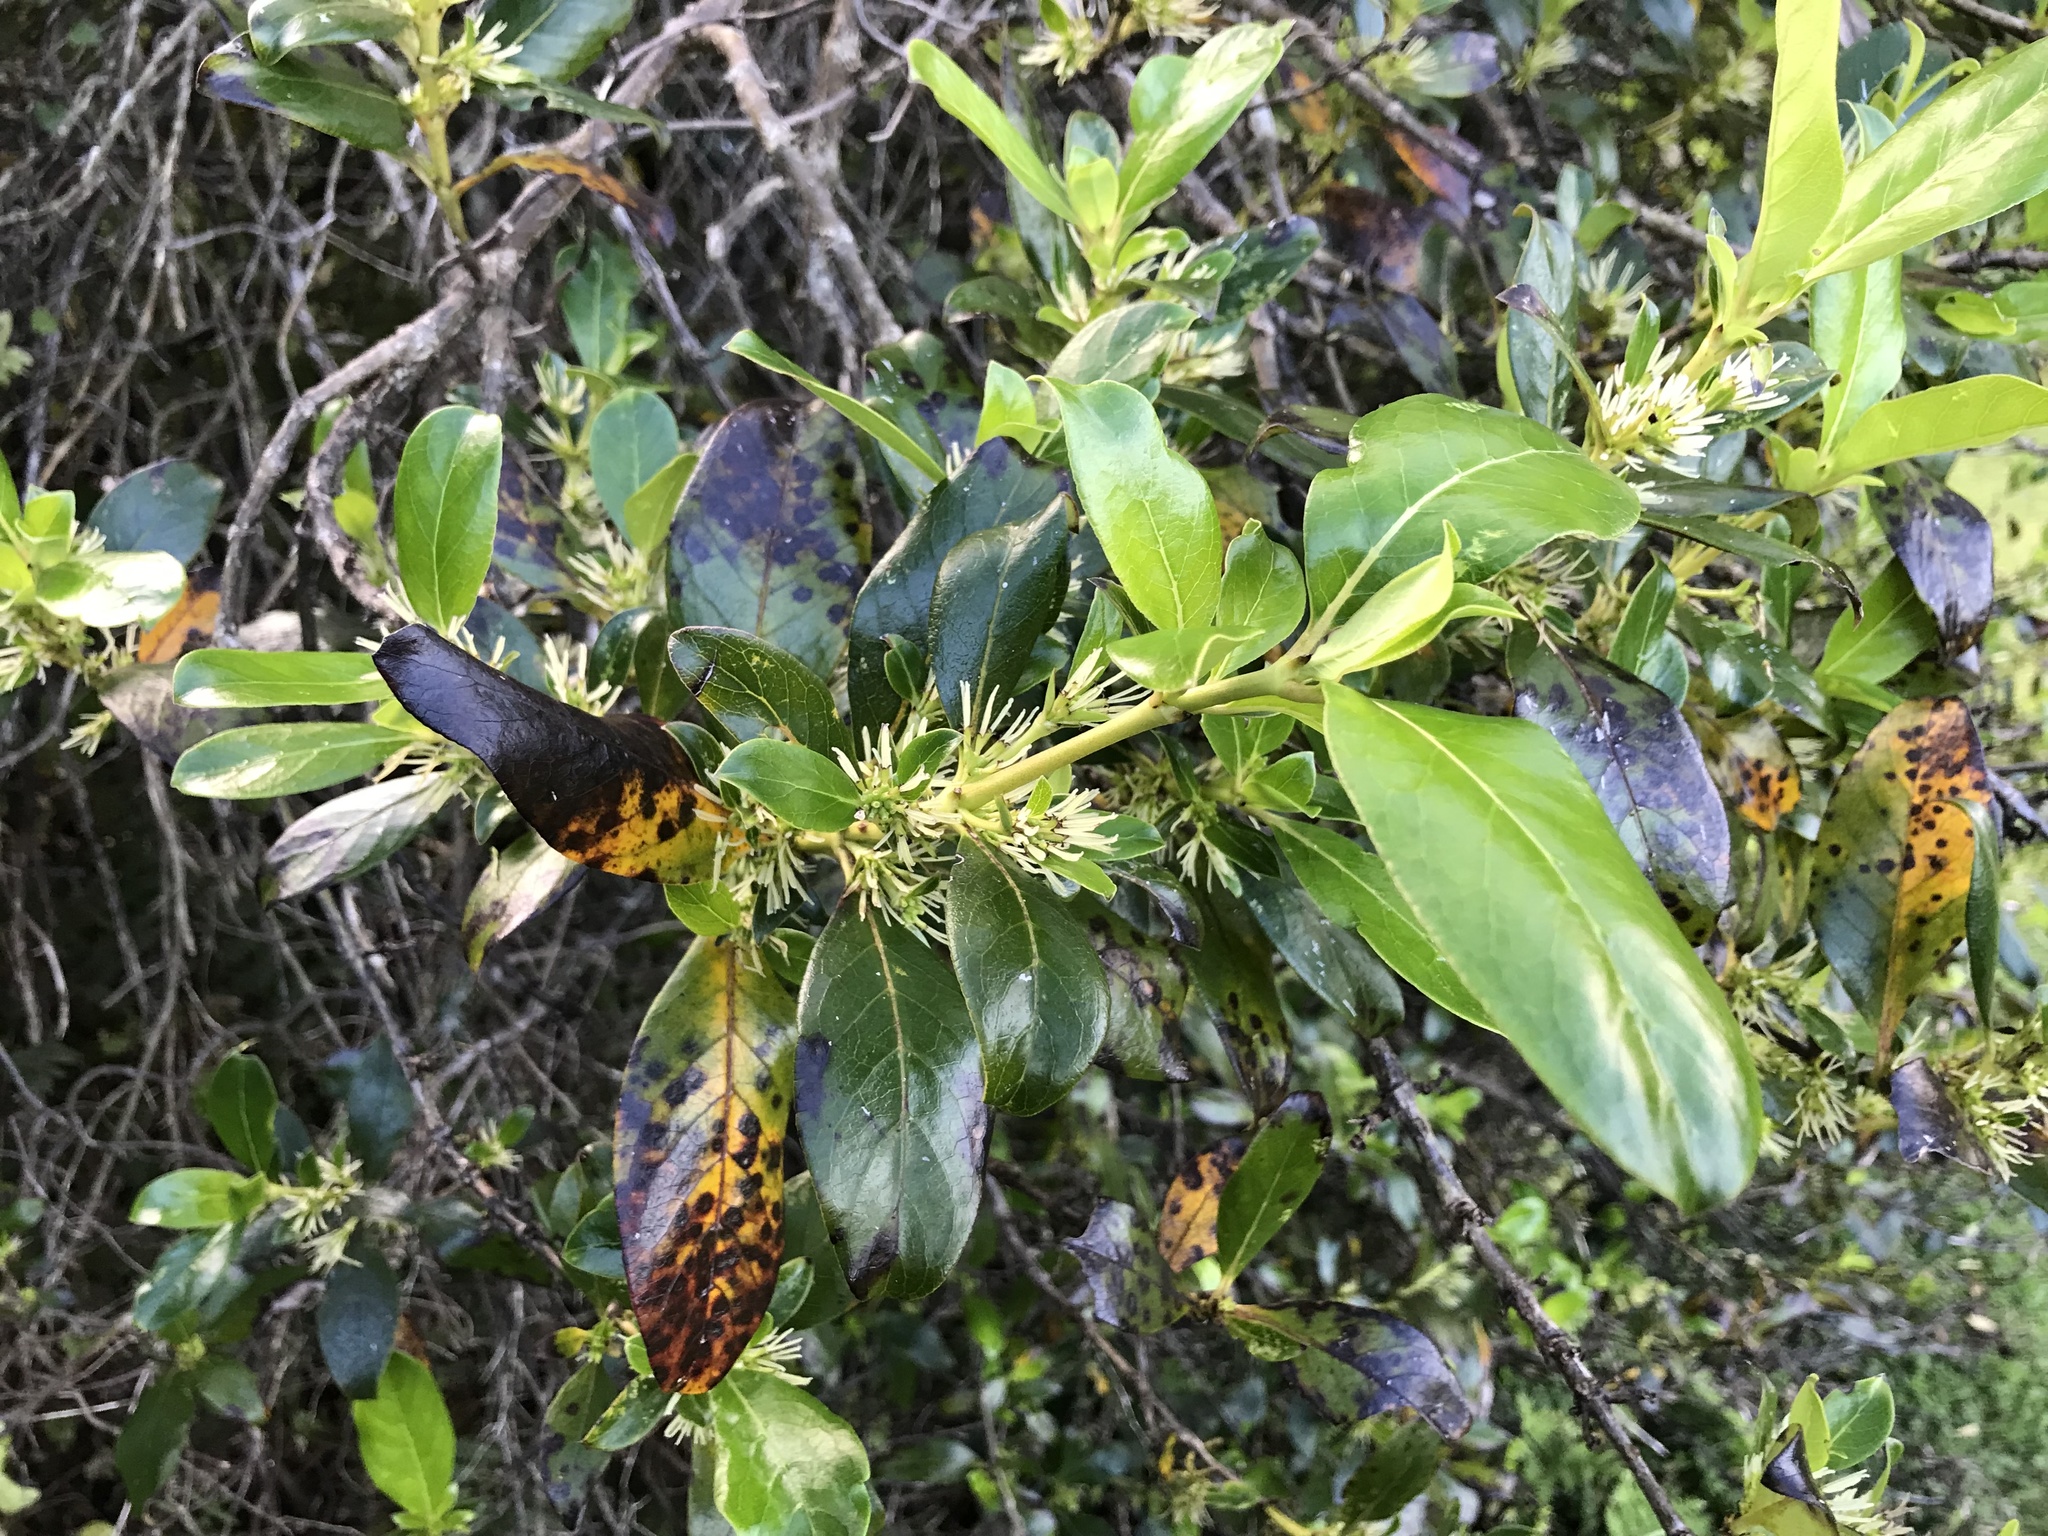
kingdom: Plantae
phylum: Tracheophyta
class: Magnoliopsida
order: Gentianales
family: Rubiaceae
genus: Coprosma
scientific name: Coprosma robusta
